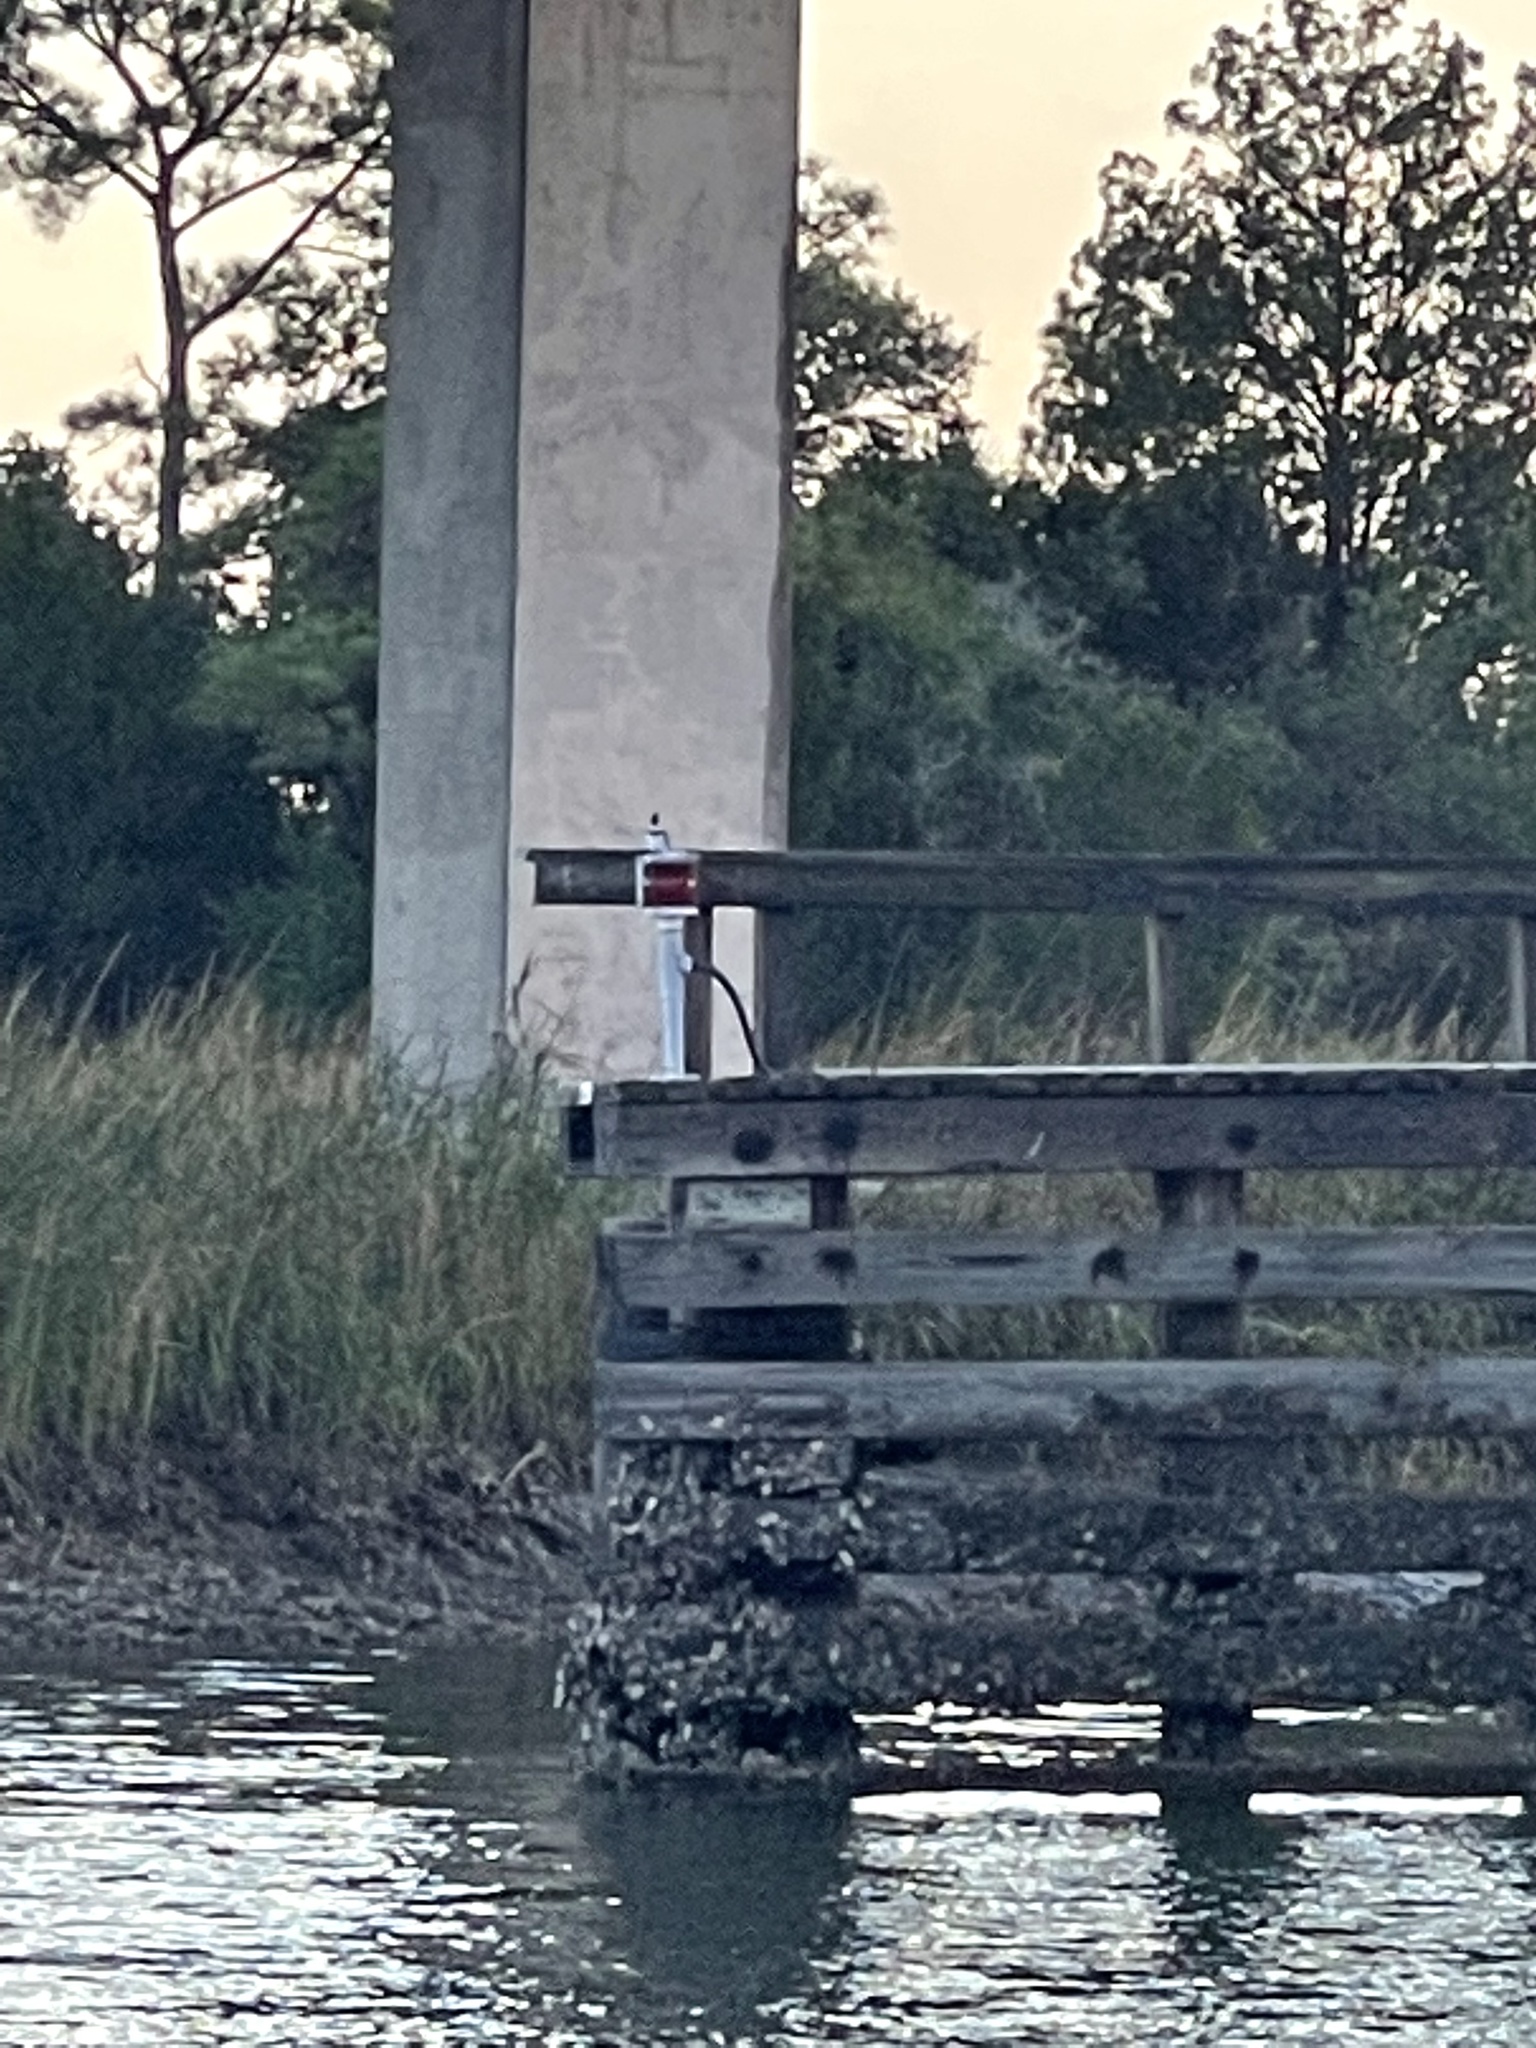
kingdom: Animalia
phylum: Chordata
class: Aves
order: Coraciiformes
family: Alcedinidae
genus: Megaceryle
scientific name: Megaceryle alcyon
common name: Belted kingfisher
